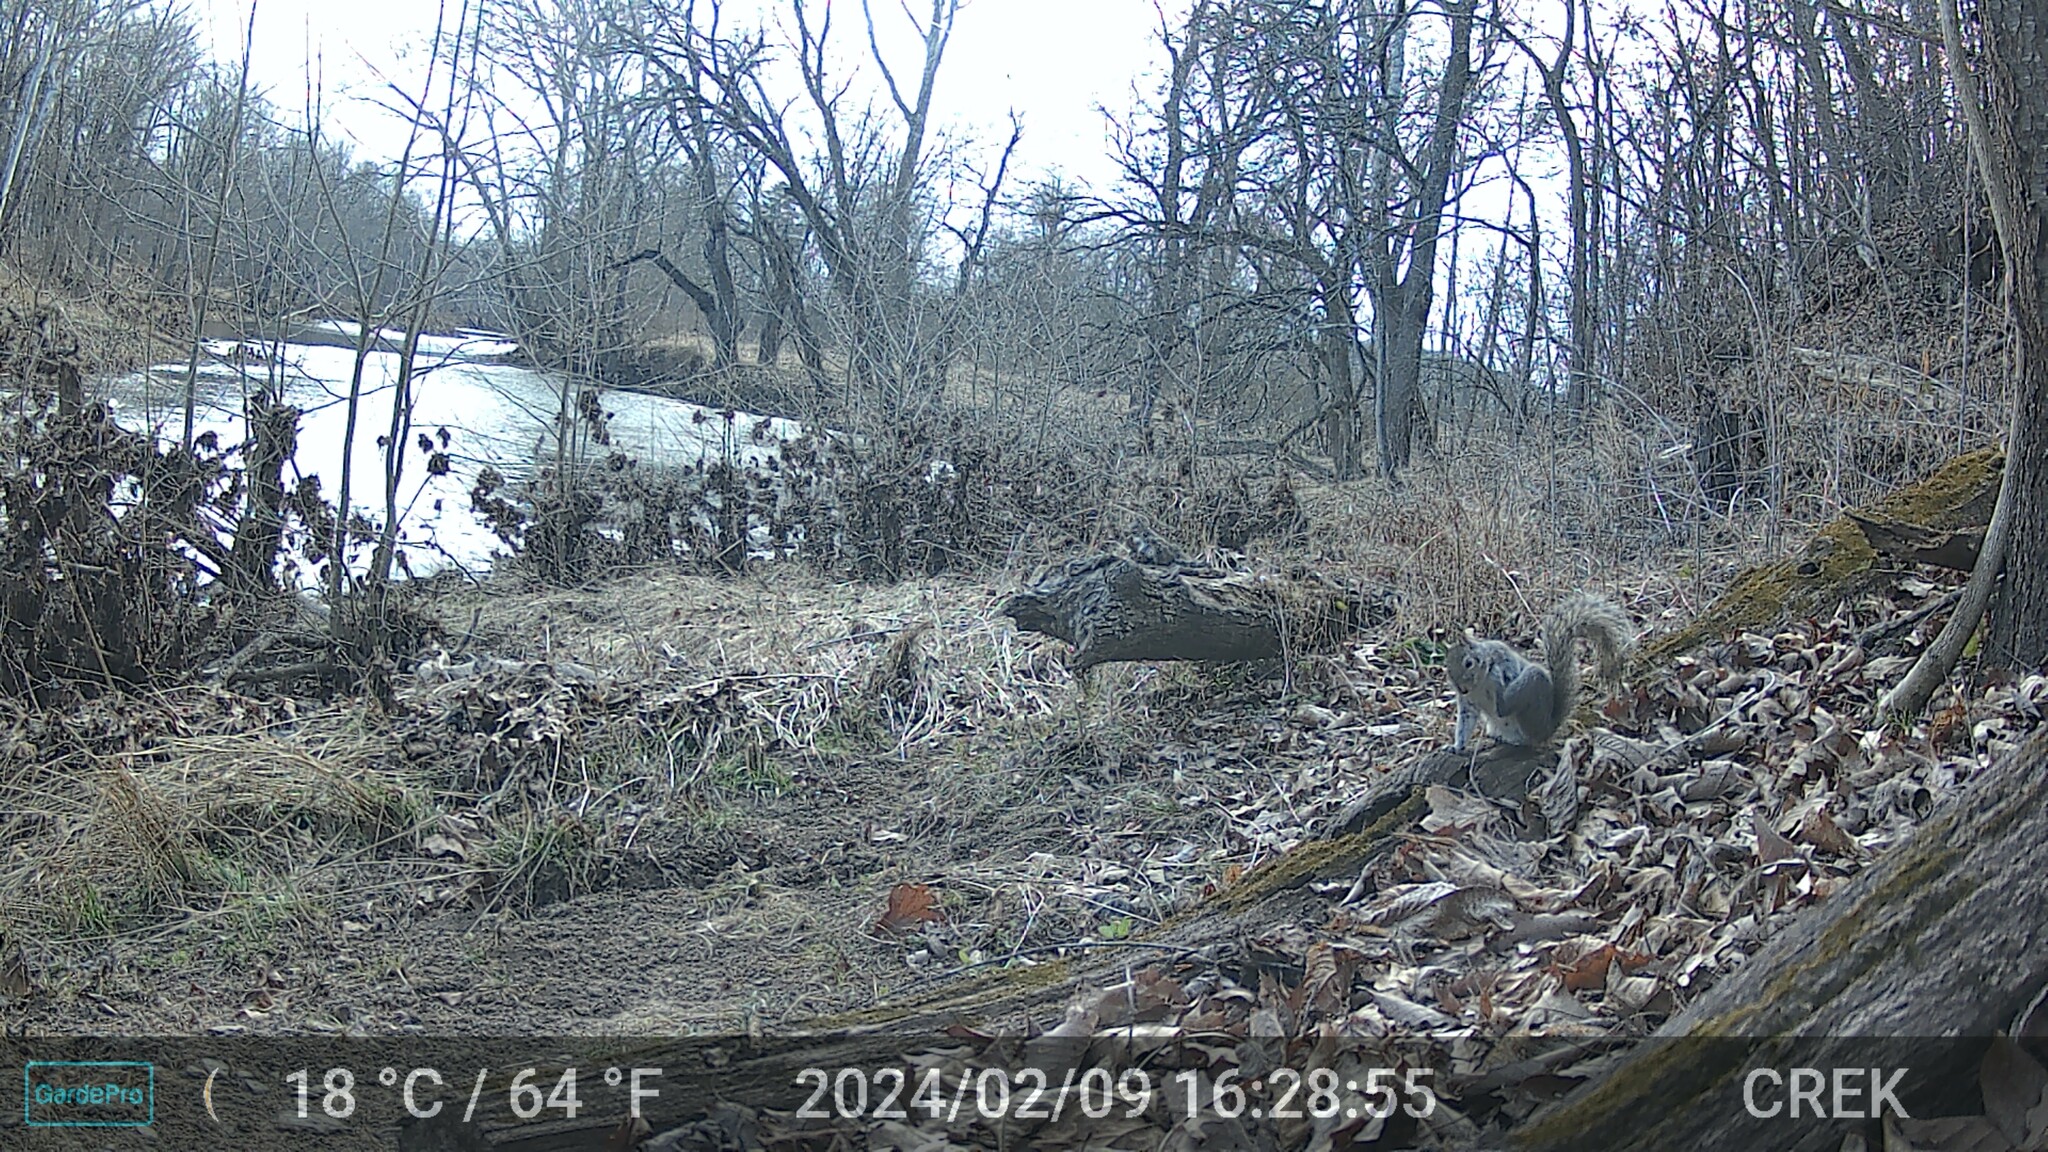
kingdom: Animalia
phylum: Chordata
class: Mammalia
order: Rodentia
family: Sciuridae
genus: Sciurus
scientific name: Sciurus carolinensis
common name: Eastern gray squirrel
